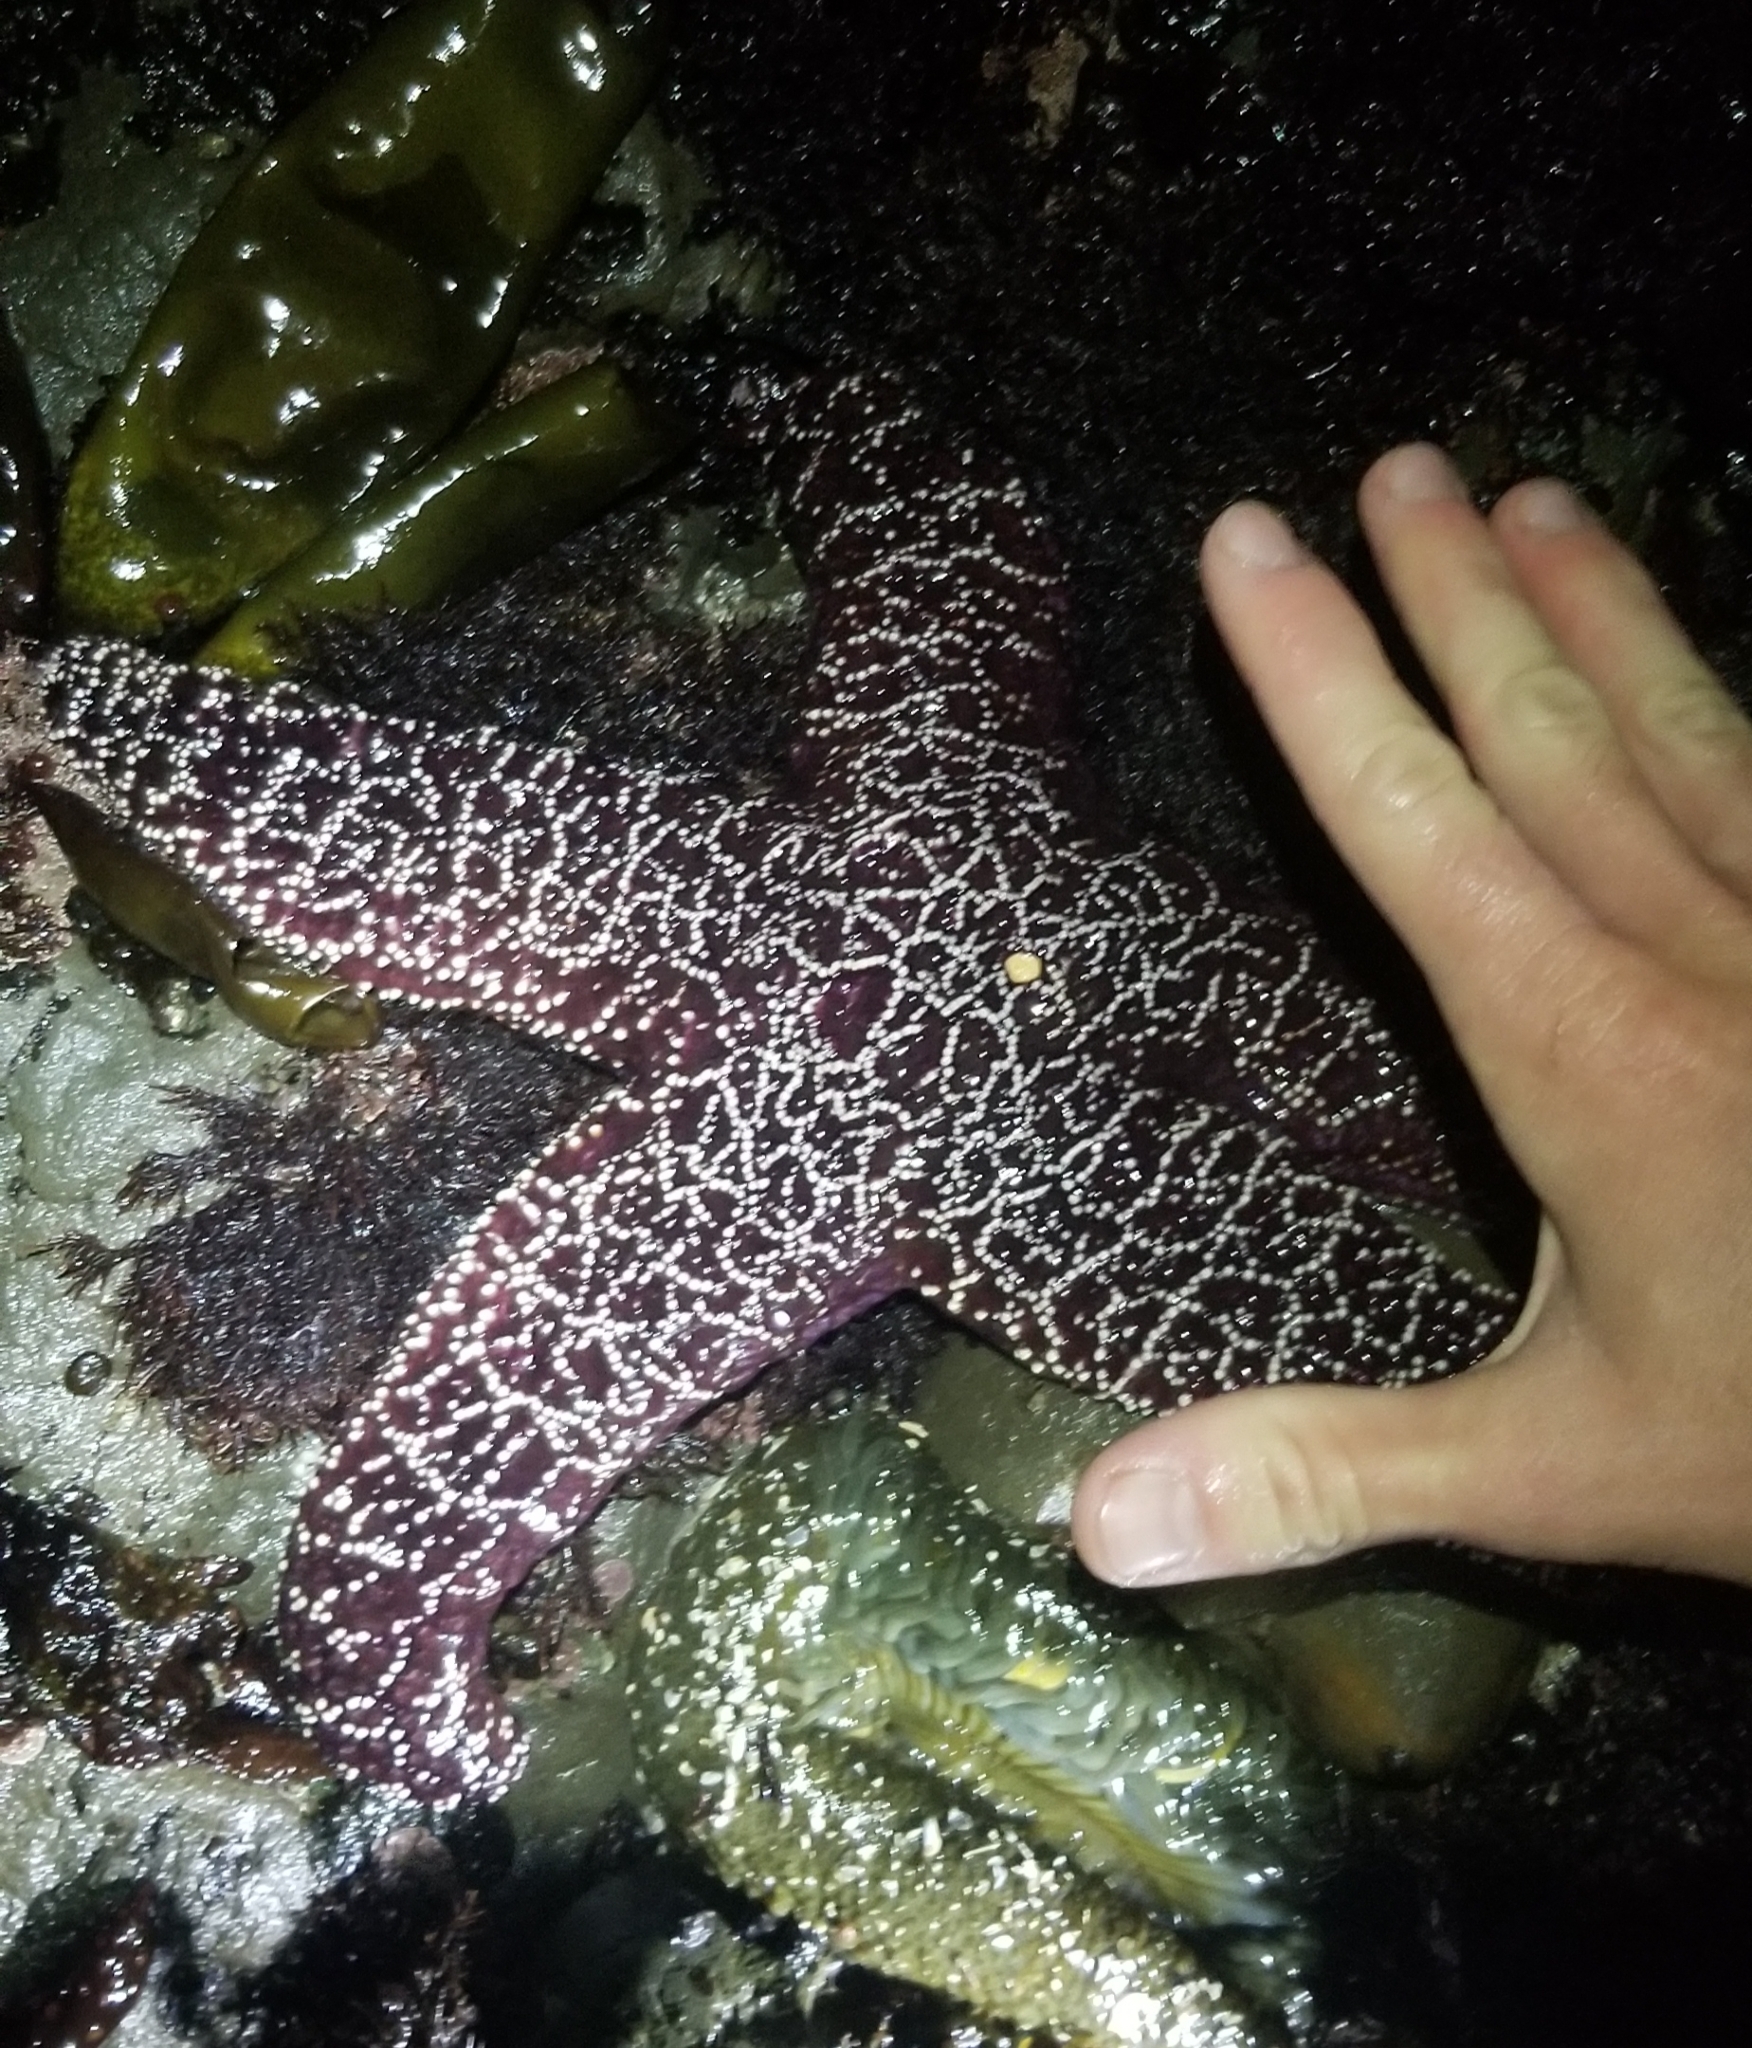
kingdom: Animalia
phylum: Echinodermata
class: Asteroidea
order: Forcipulatida
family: Asteriidae
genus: Pisaster
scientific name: Pisaster ochraceus
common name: Ochre stars
